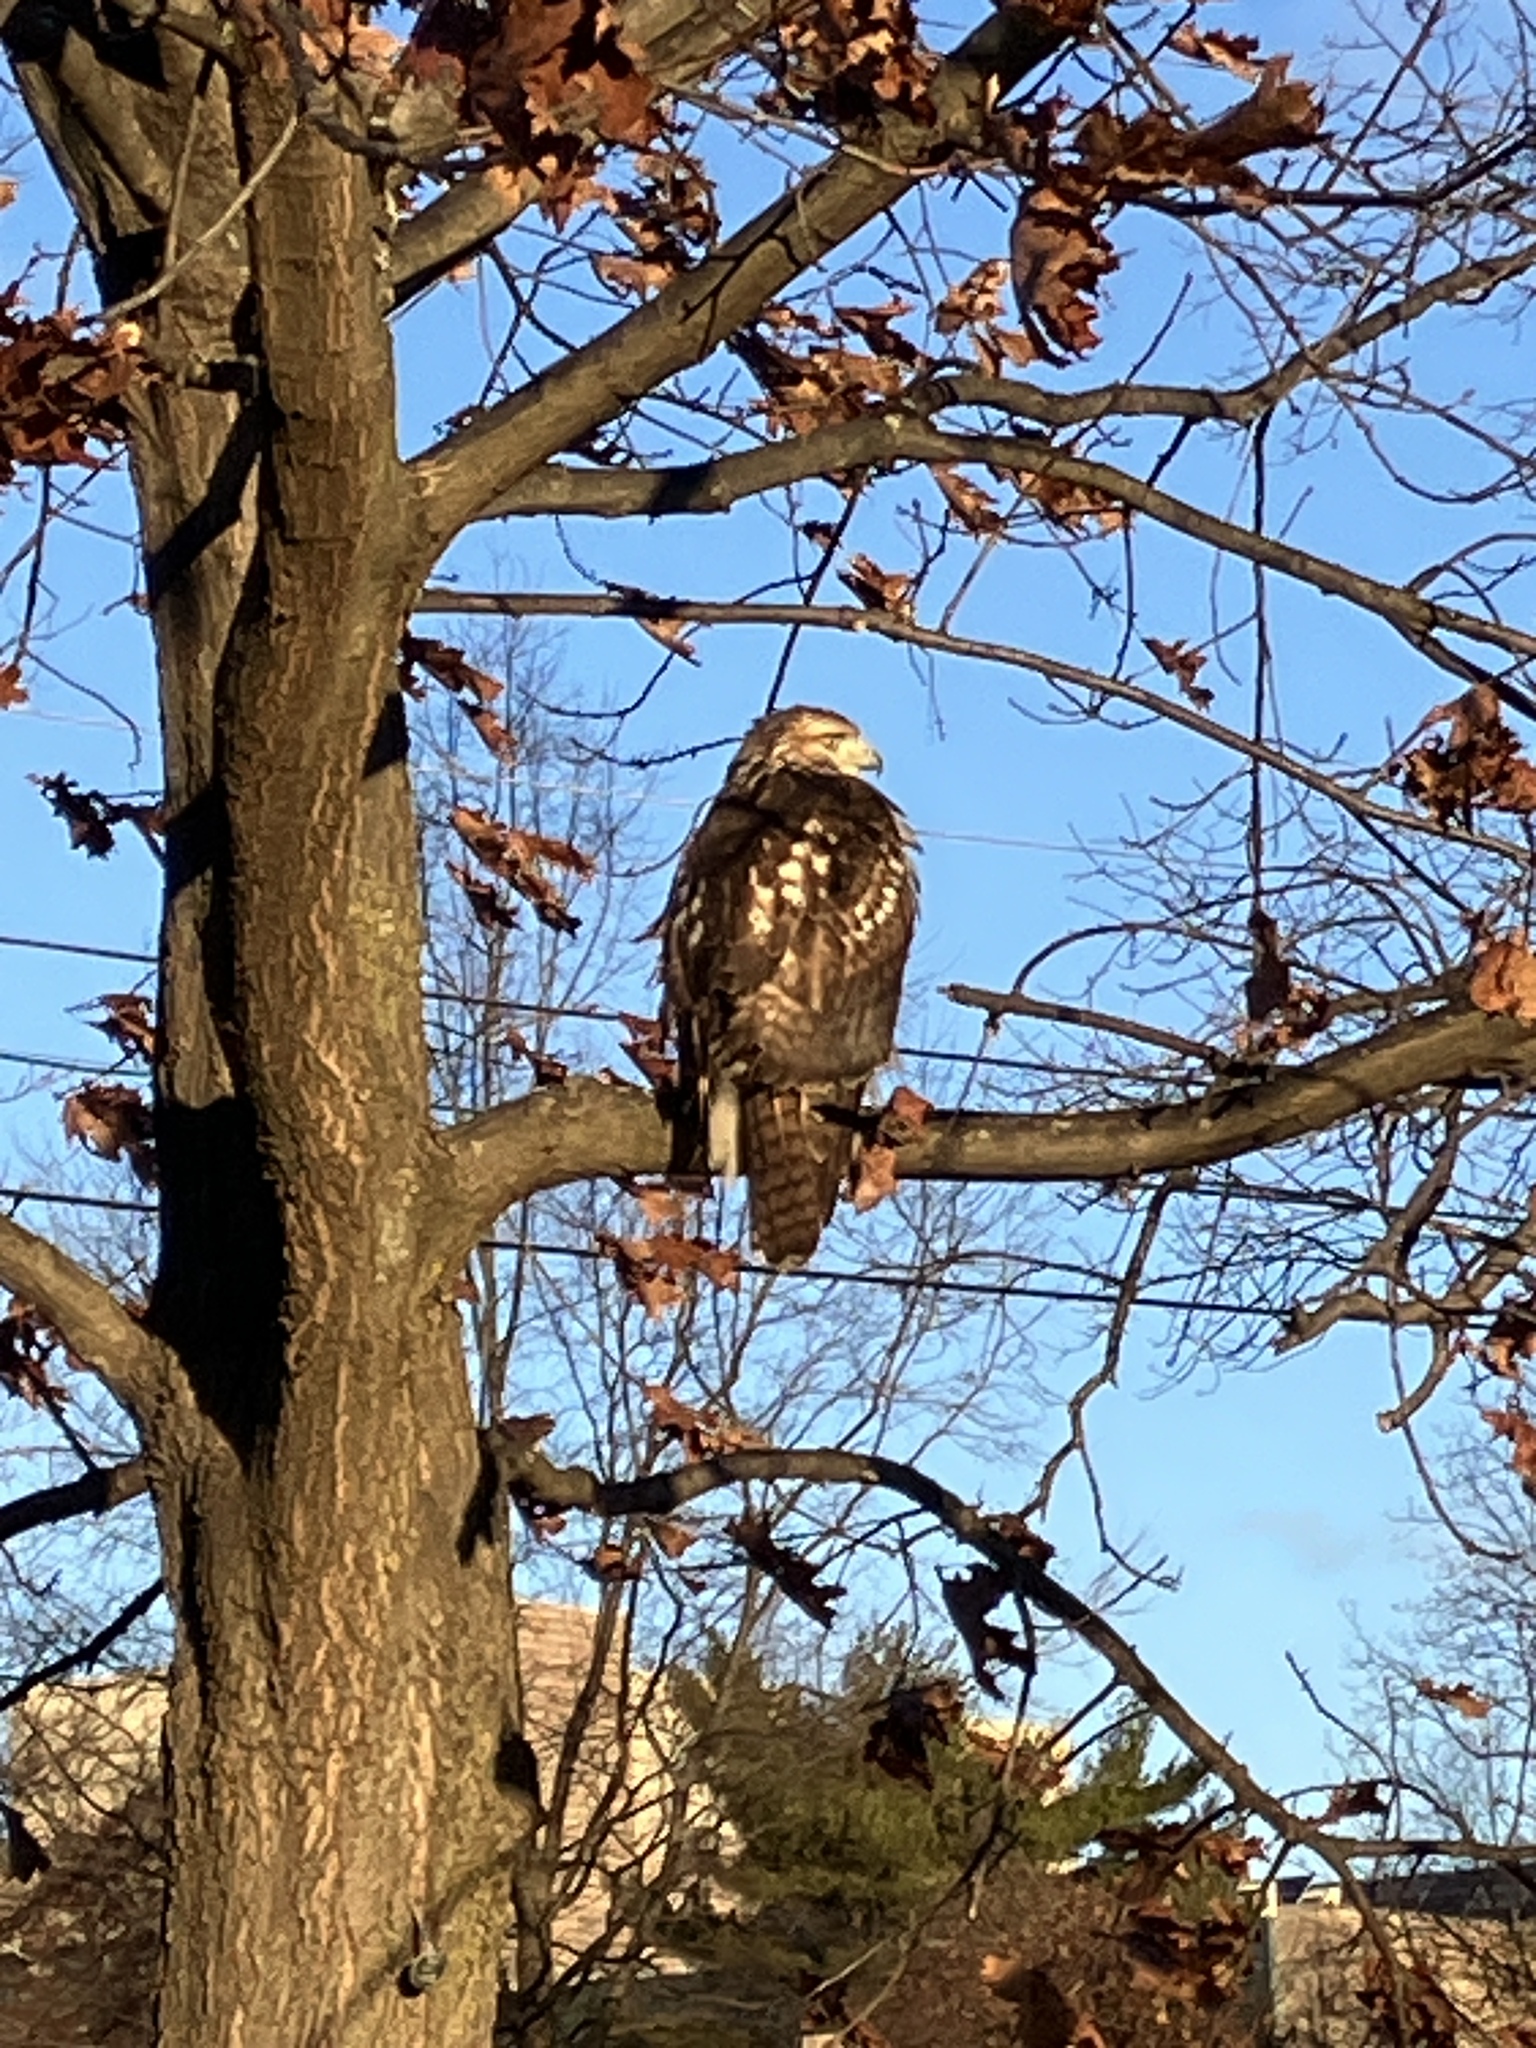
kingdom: Animalia
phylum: Chordata
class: Aves
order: Accipitriformes
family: Accipitridae
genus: Buteo
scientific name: Buteo jamaicensis
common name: Red-tailed hawk
